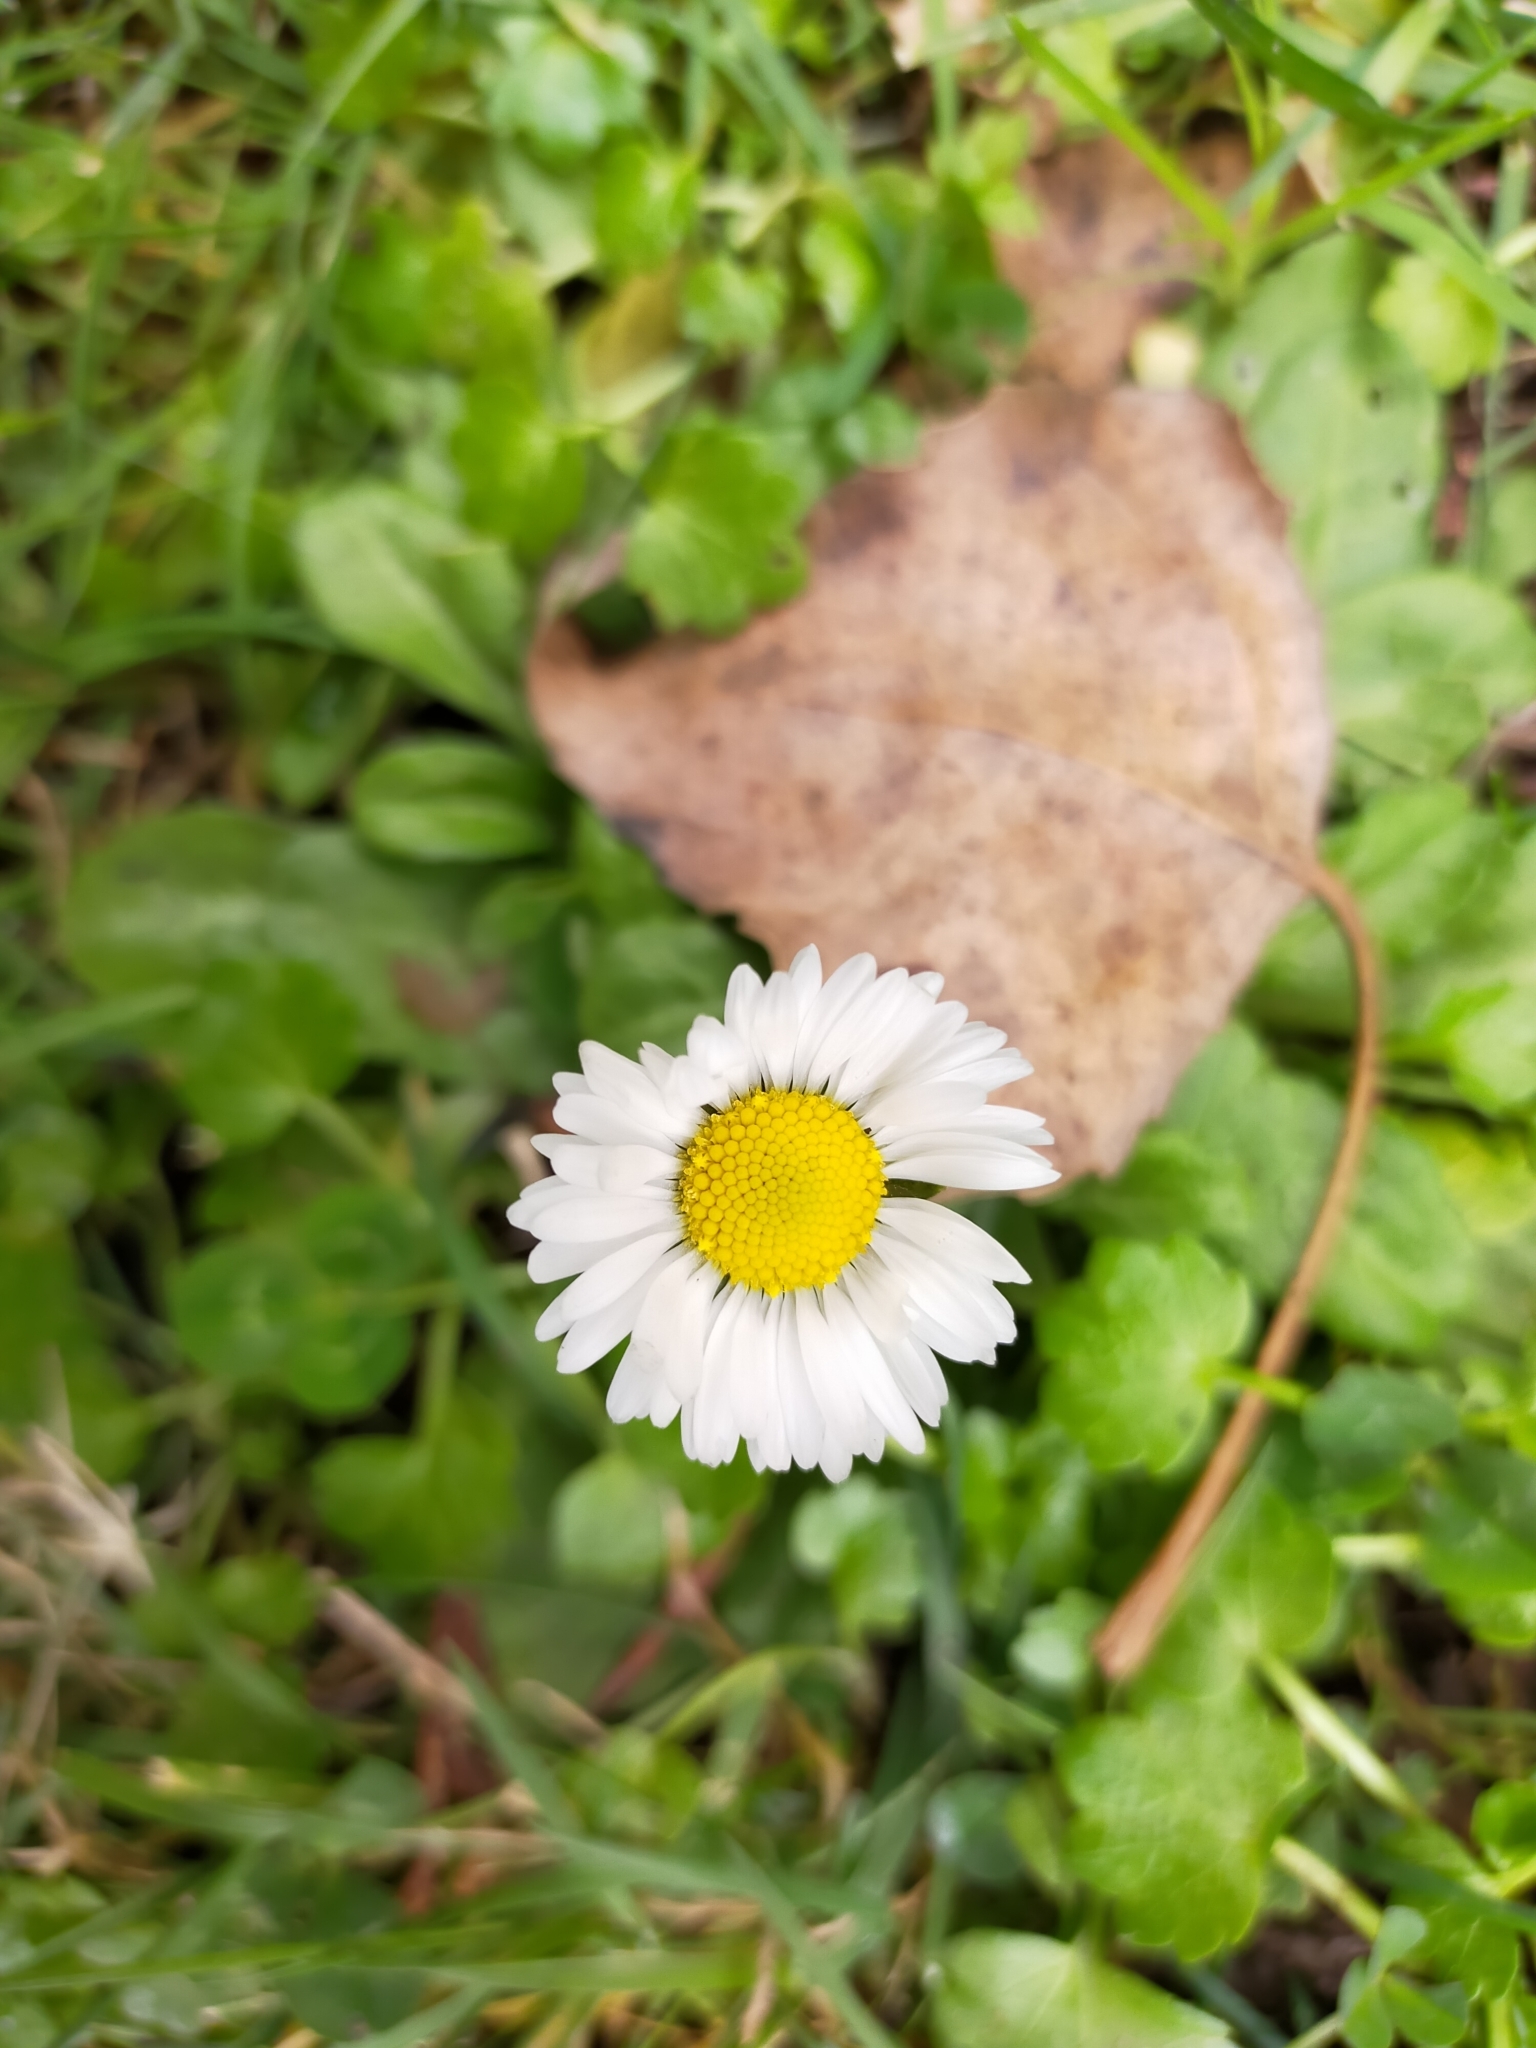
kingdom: Plantae
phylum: Tracheophyta
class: Magnoliopsida
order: Asterales
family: Asteraceae
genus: Bellis
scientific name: Bellis perennis
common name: Lawndaisy
